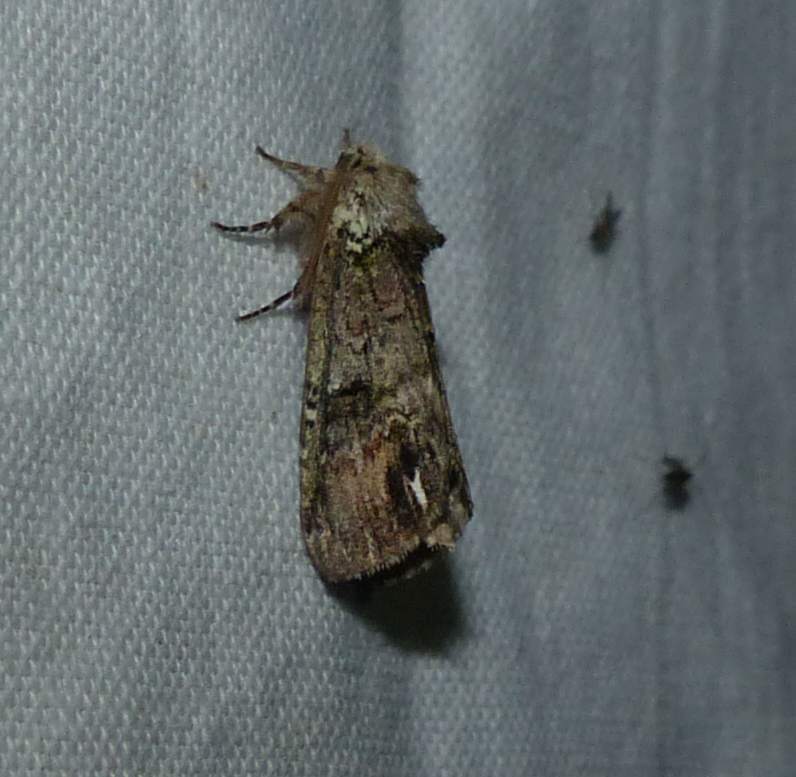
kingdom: Animalia
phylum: Arthropoda
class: Insecta
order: Lepidoptera
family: Notodontidae
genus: Schizura
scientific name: Schizura
